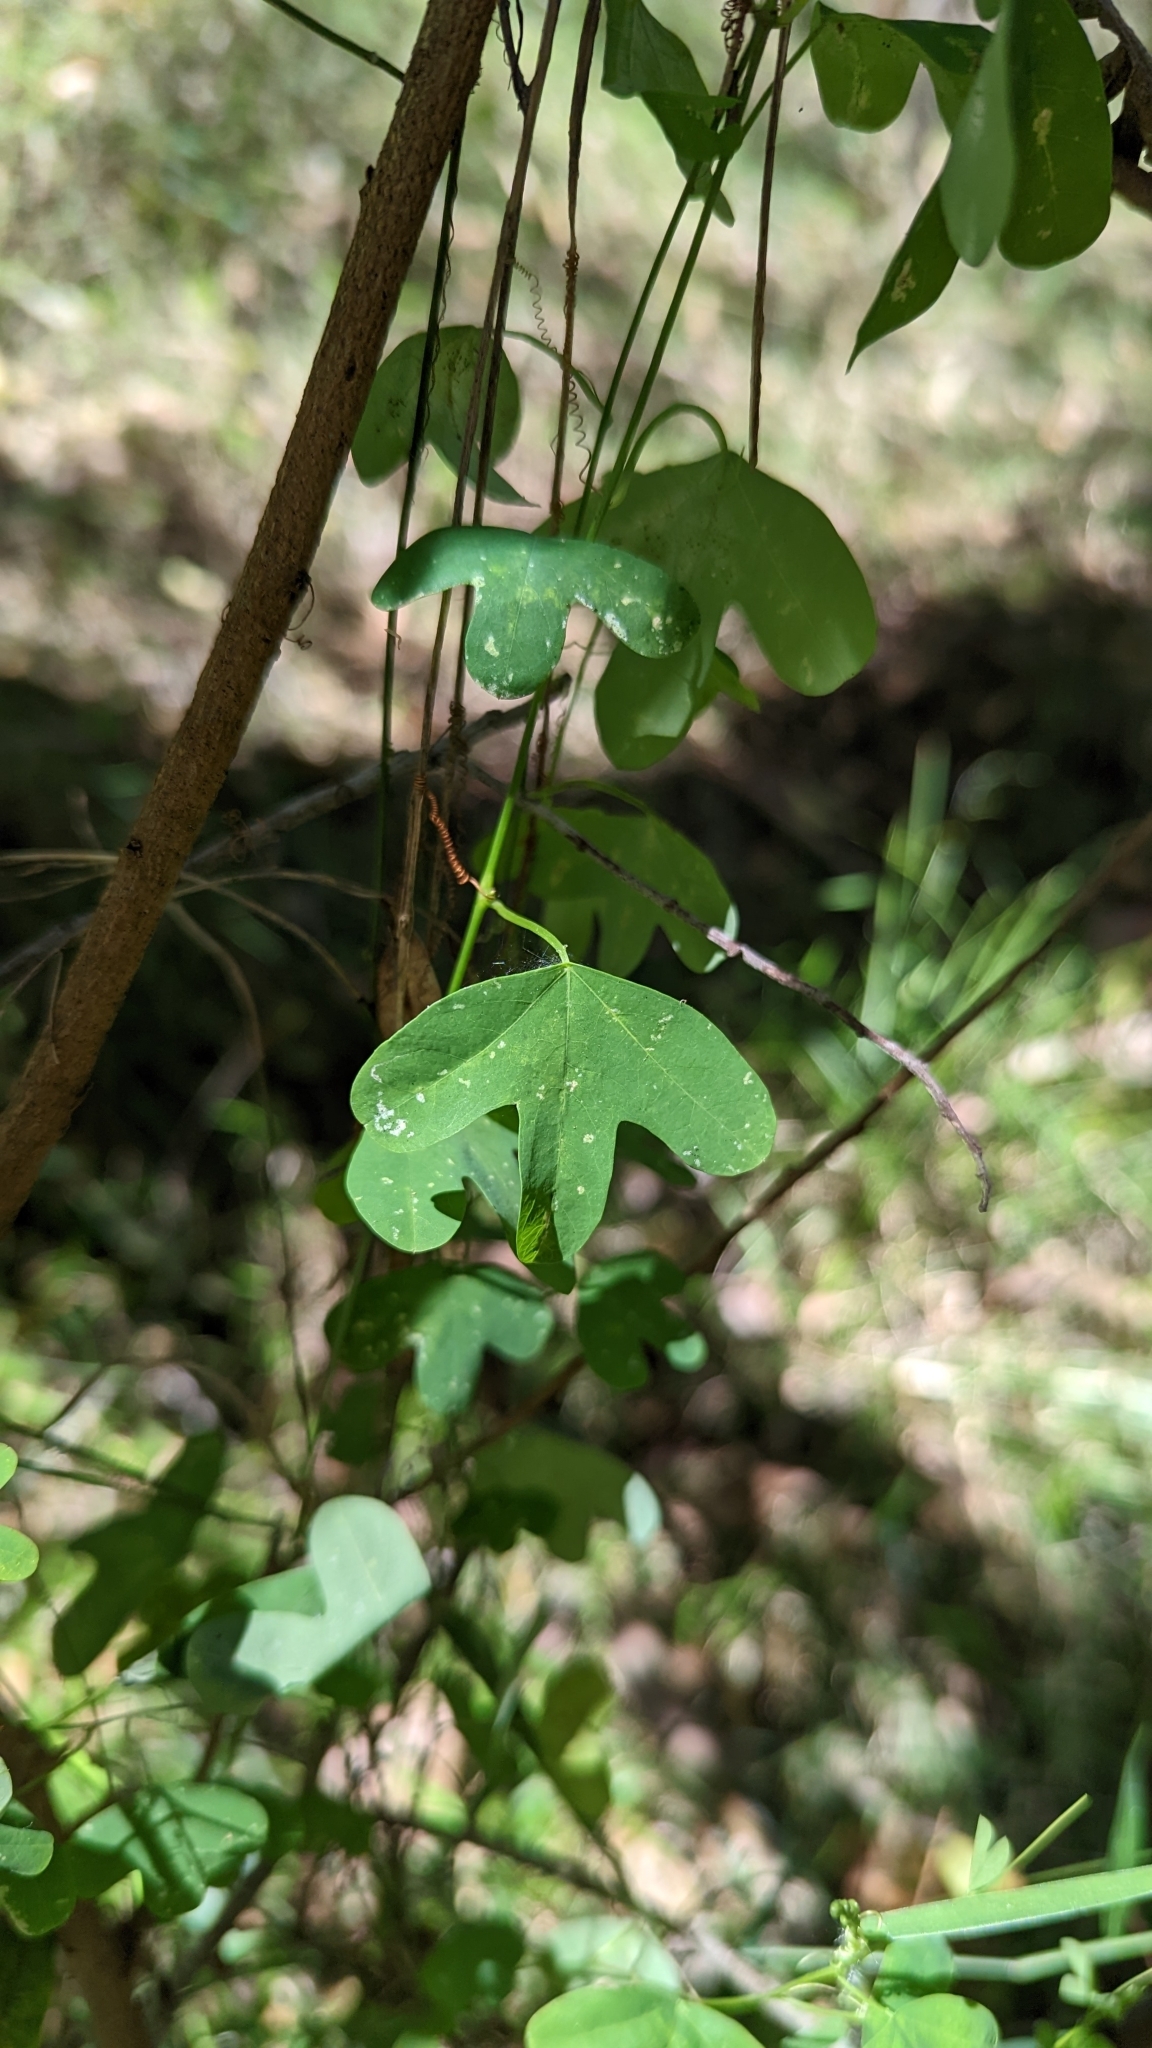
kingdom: Plantae
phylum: Tracheophyta
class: Magnoliopsida
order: Malpighiales
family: Passifloraceae
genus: Passiflora
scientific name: Passiflora aurantia
